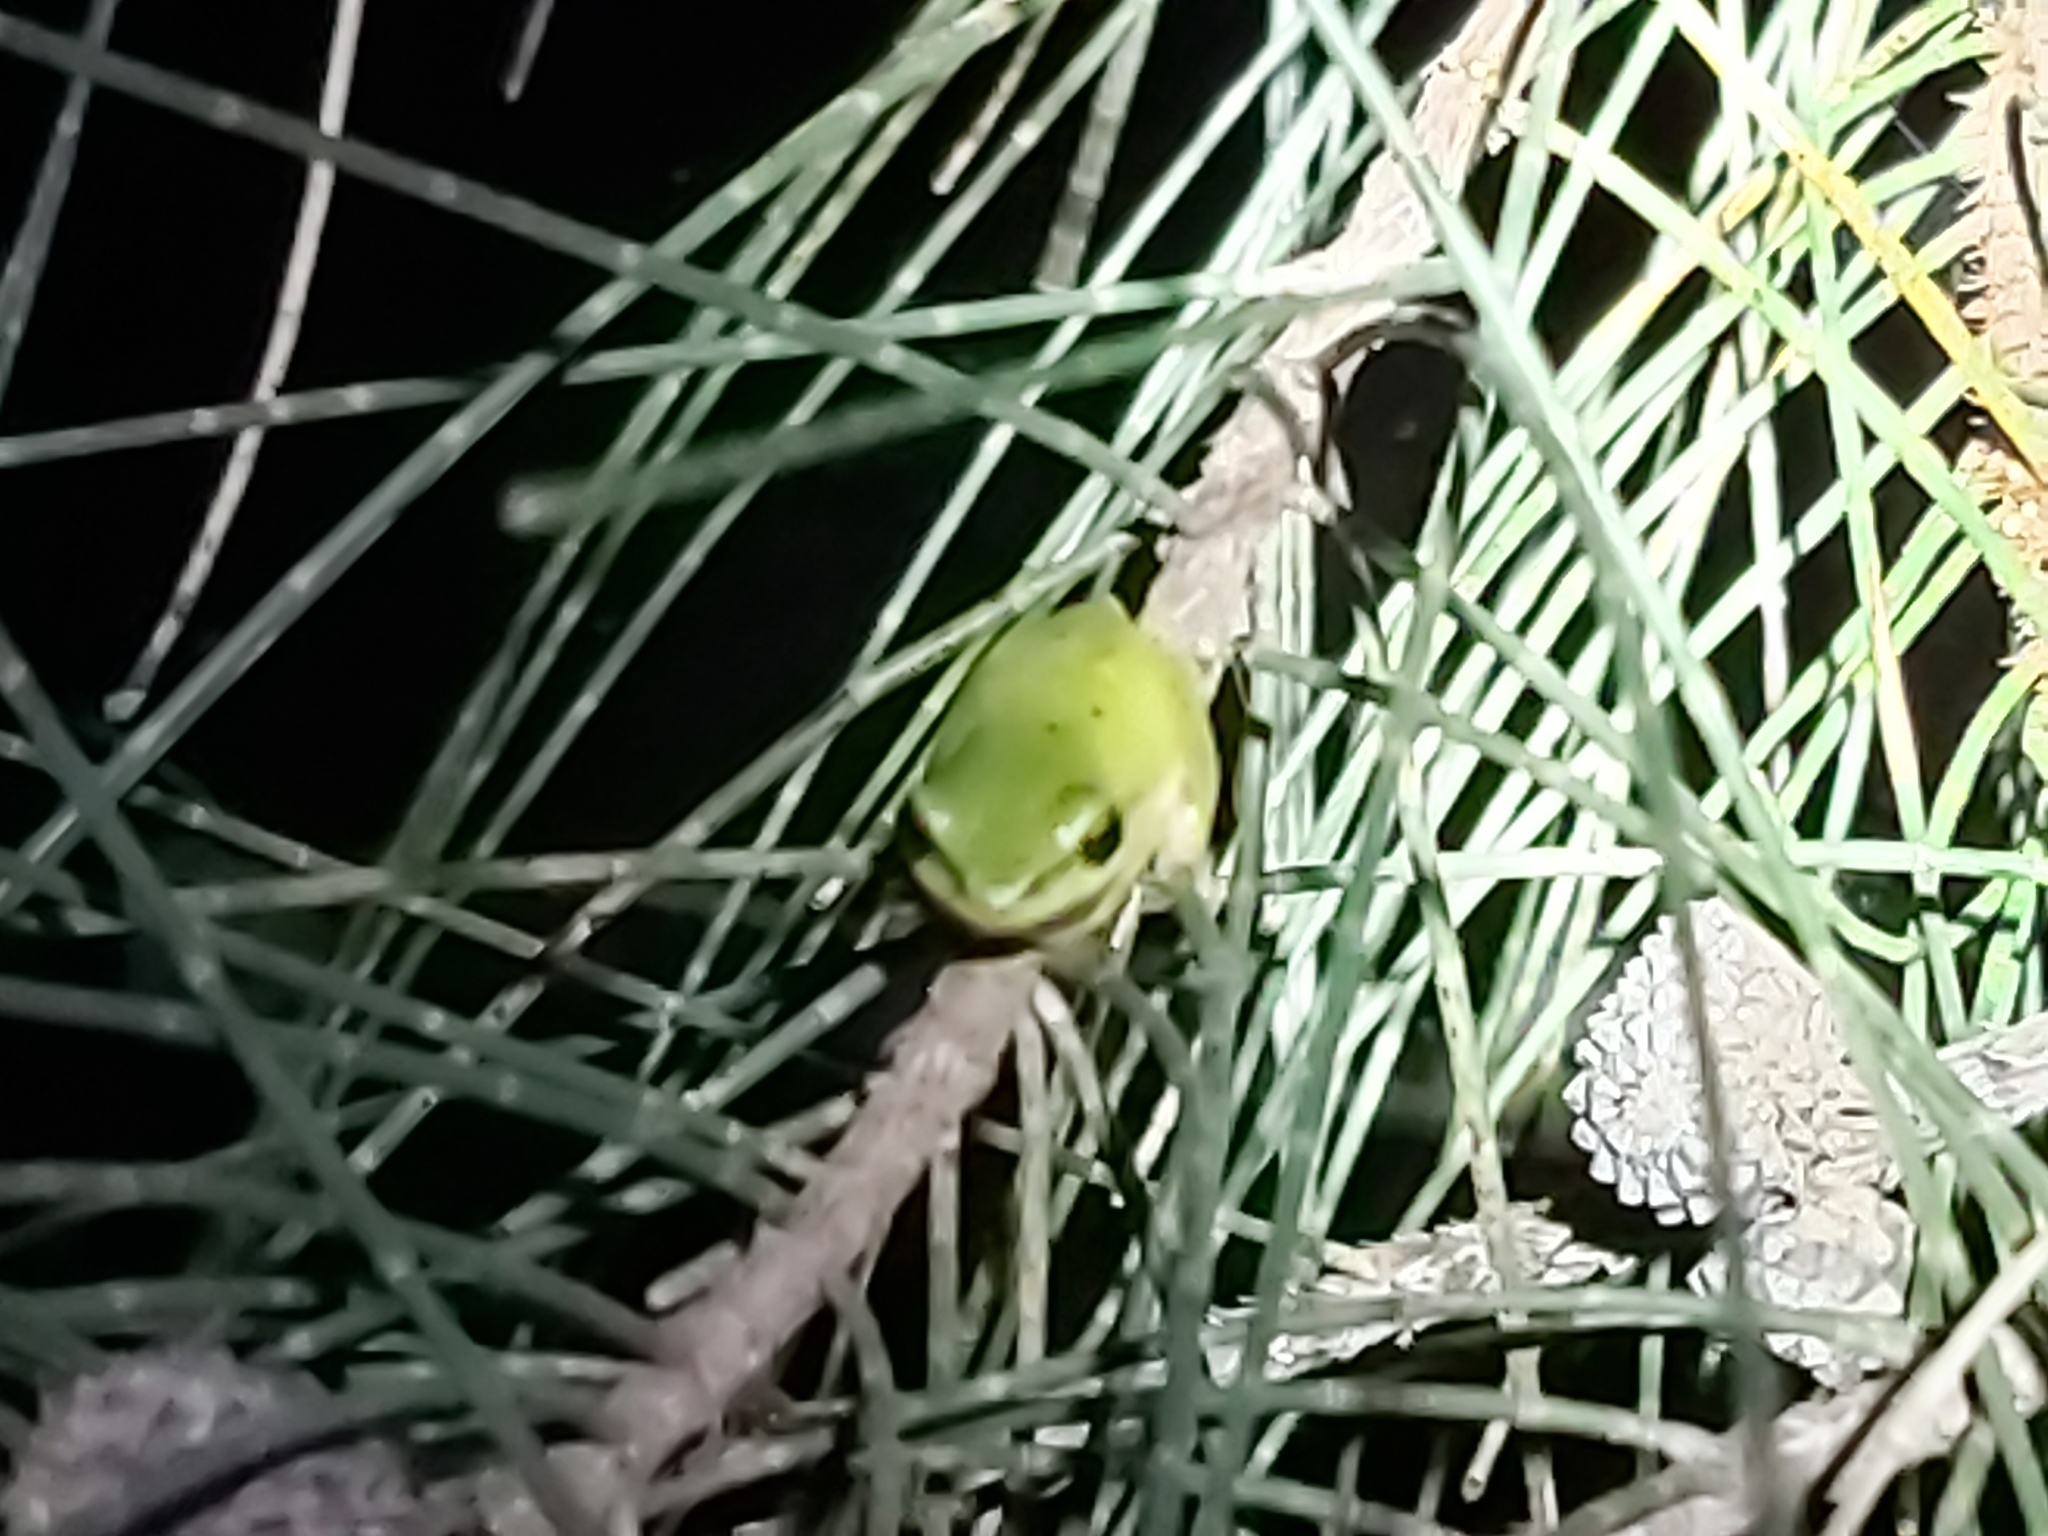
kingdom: Animalia
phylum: Chordata
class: Amphibia
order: Anura
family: Pelodryadidae
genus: Litoria
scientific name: Litoria fallax
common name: Eastern dwarf treefrog
